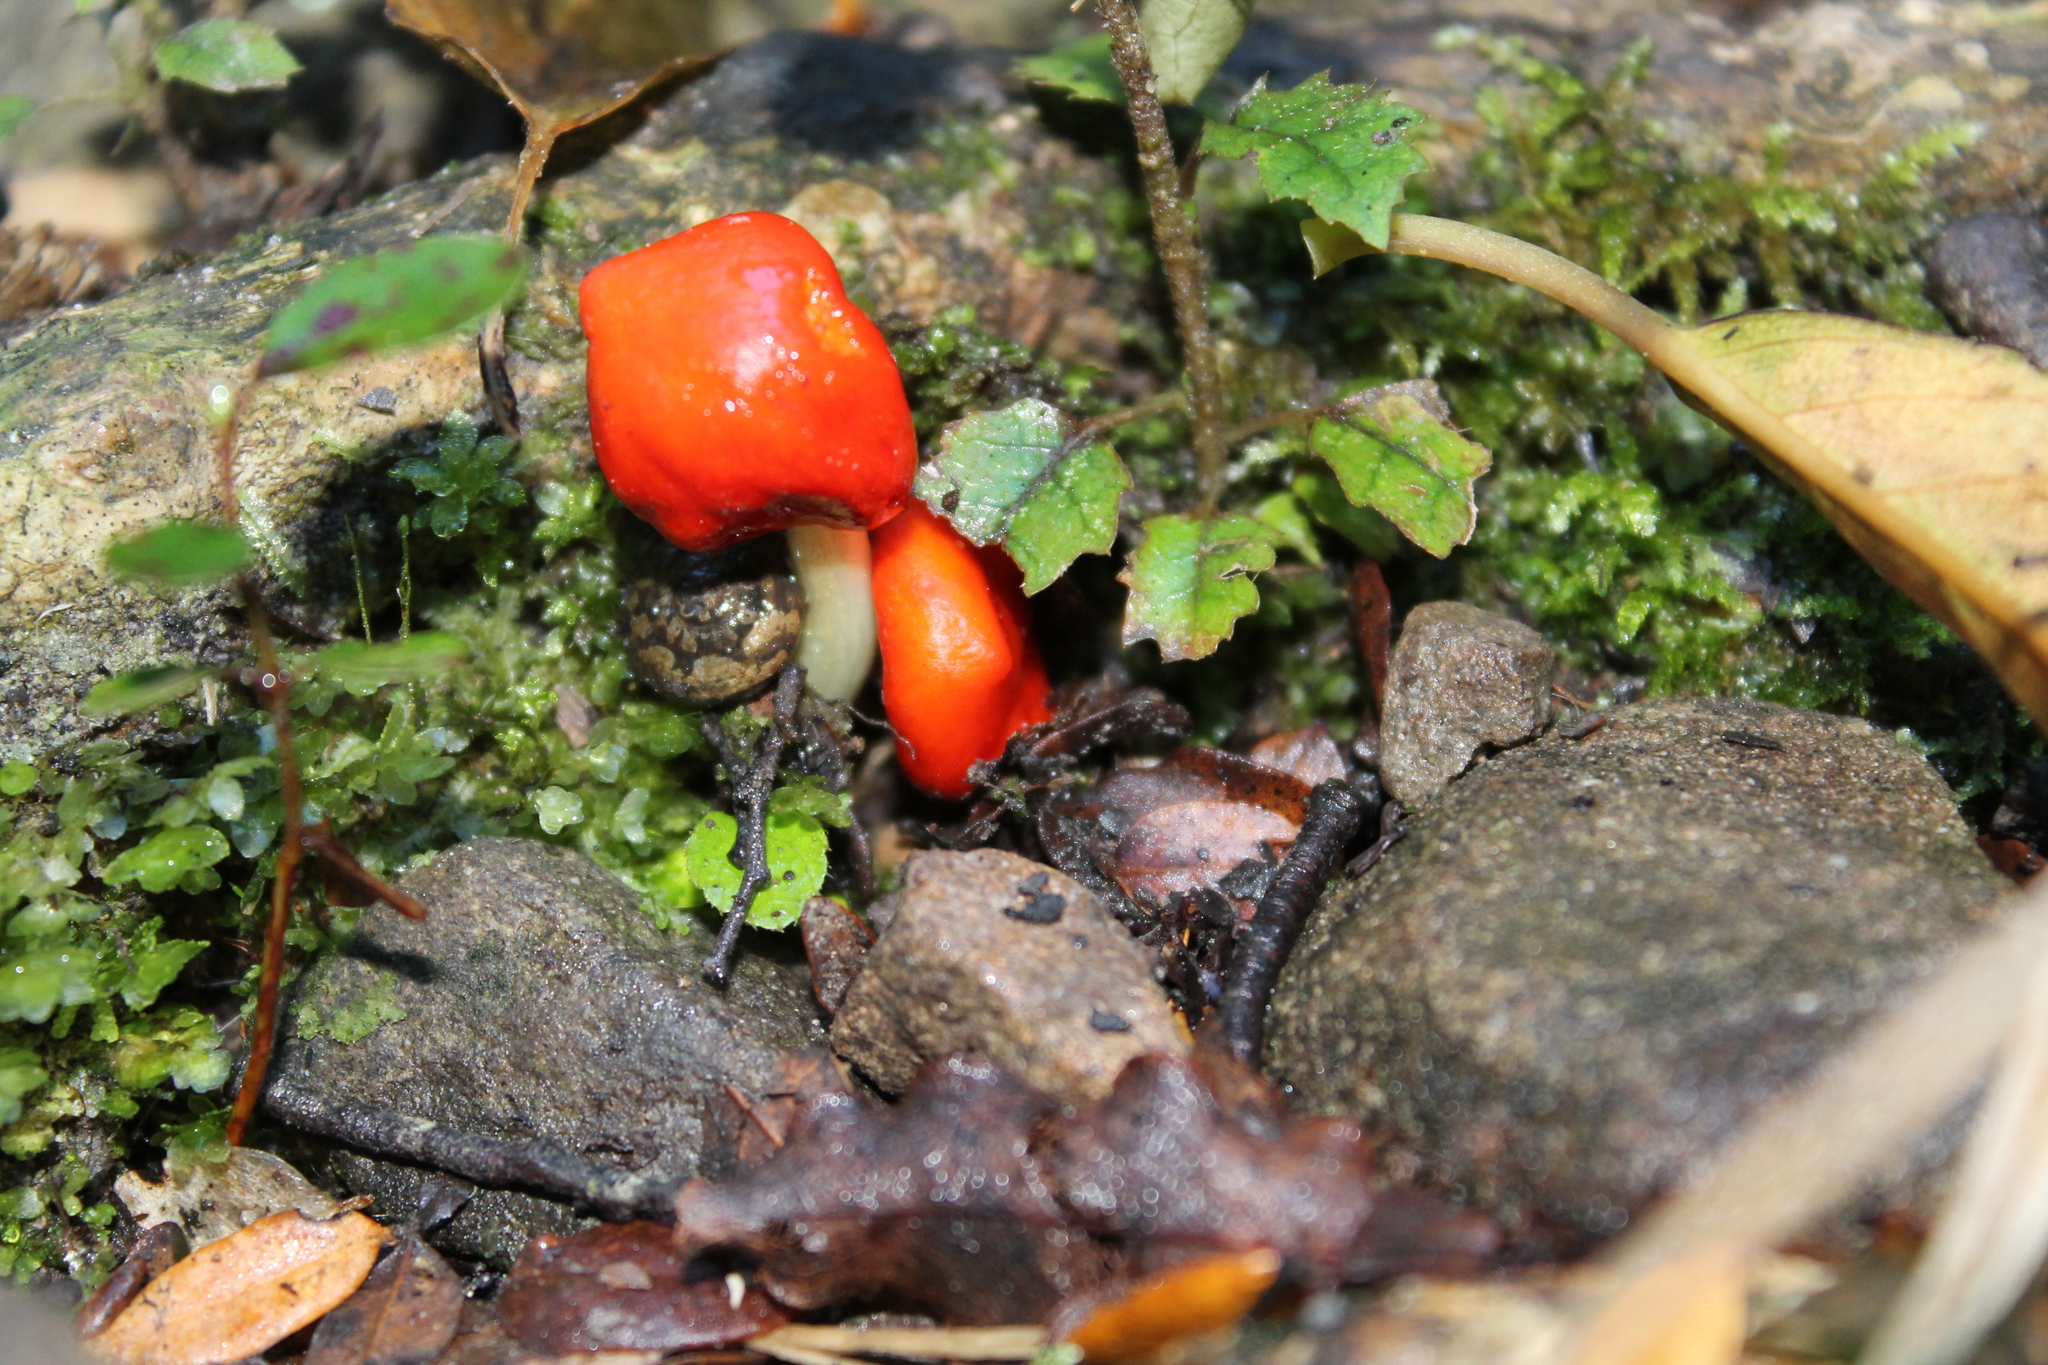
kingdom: Fungi
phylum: Basidiomycota
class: Agaricomycetes
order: Agaricales
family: Strophariaceae
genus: Leratiomyces
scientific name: Leratiomyces erythrocephalus
